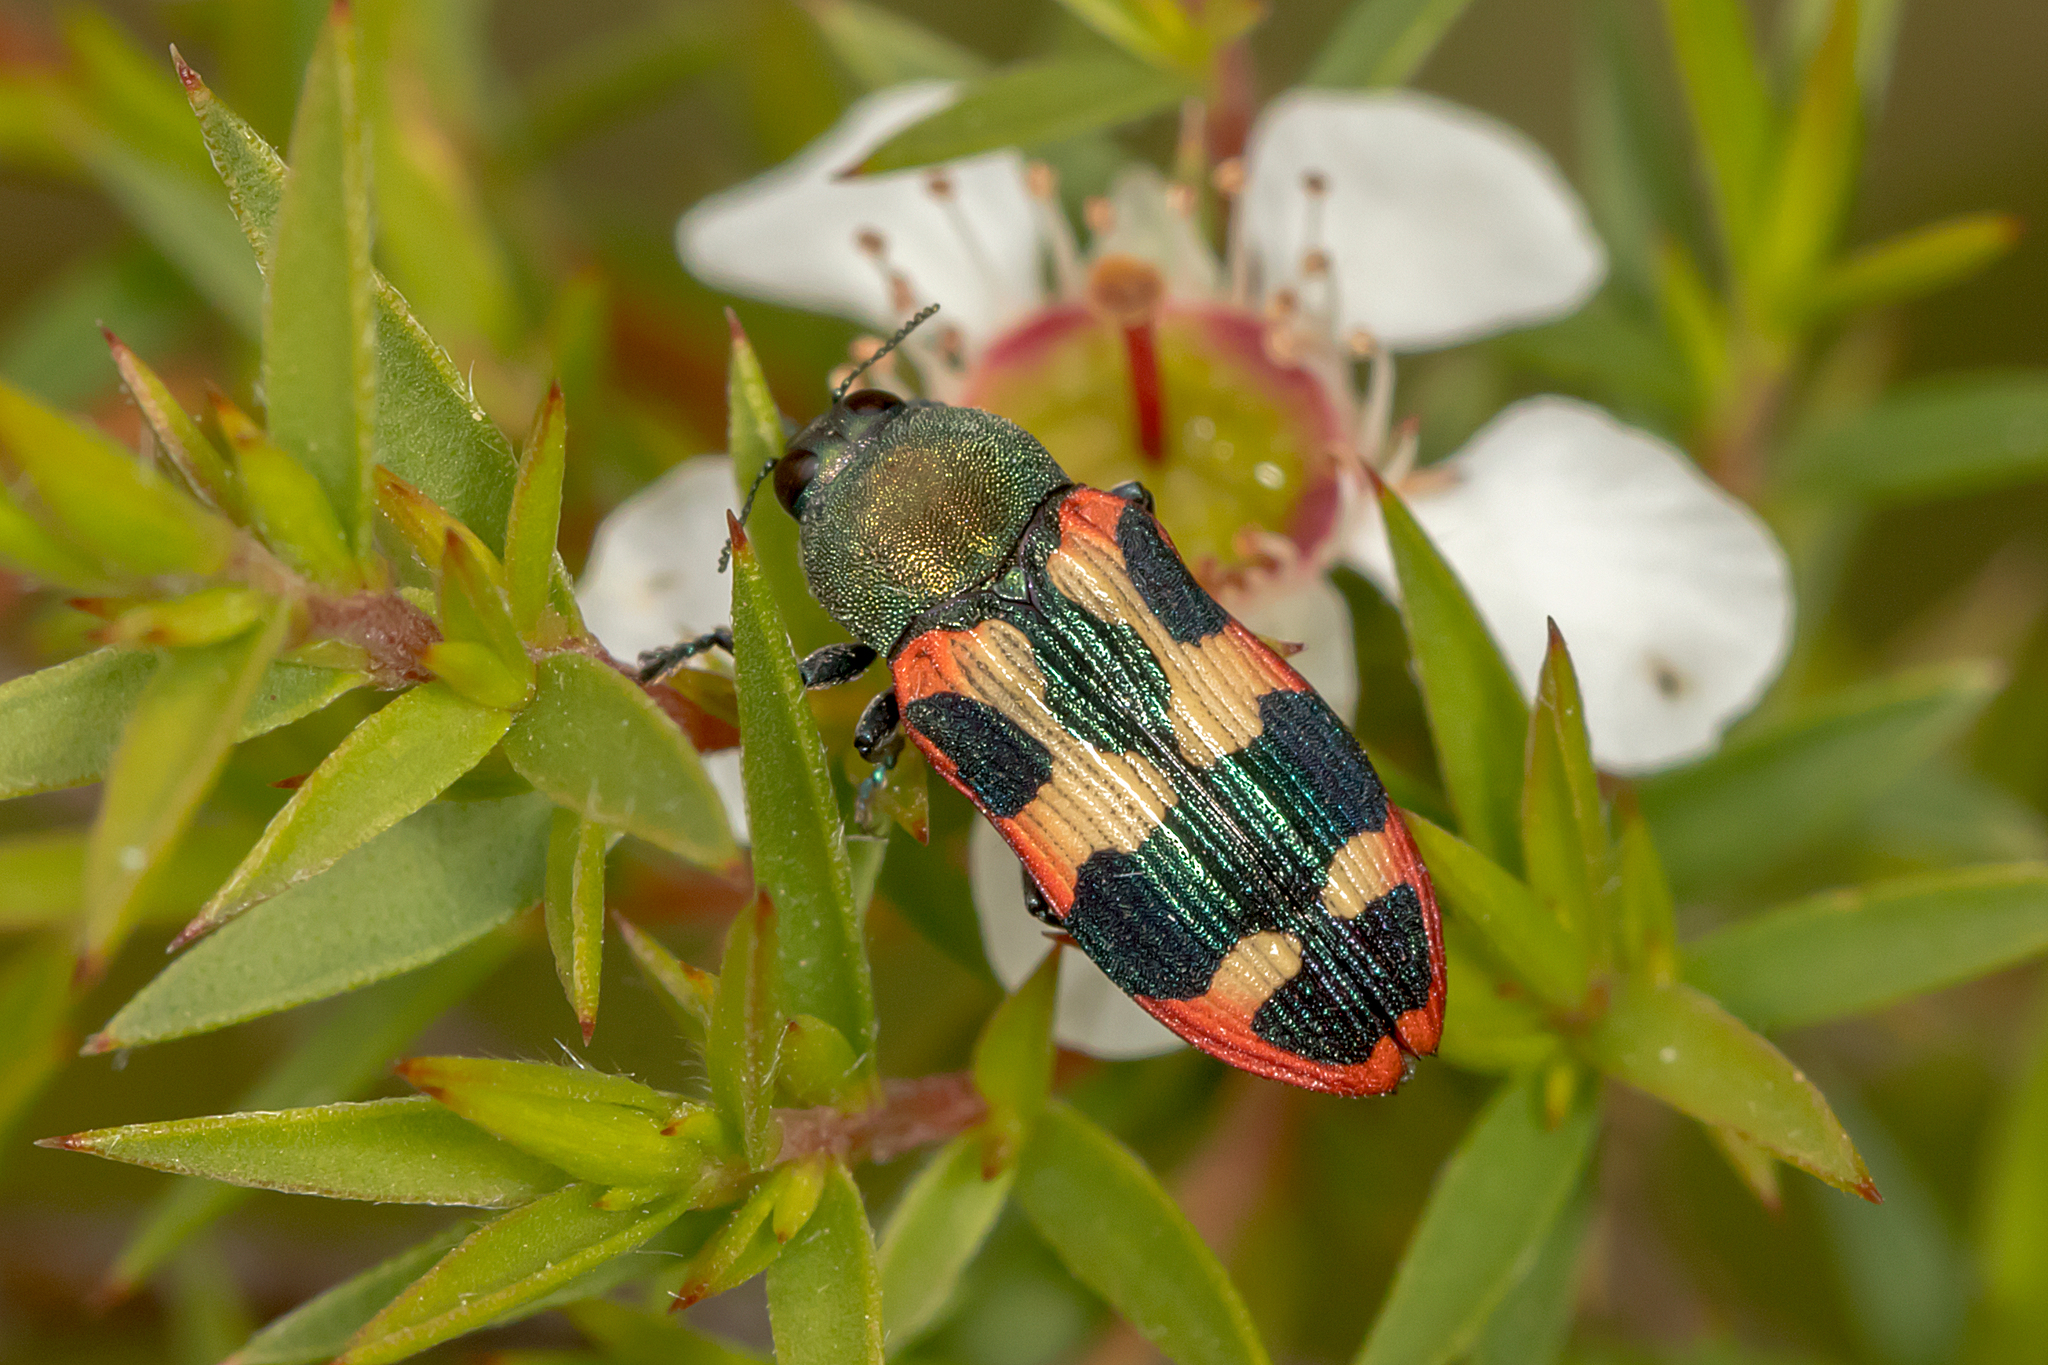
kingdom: Animalia
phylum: Arthropoda
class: Insecta
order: Coleoptera
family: Buprestidae
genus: Castiarina
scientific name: Castiarina sexplagiata
